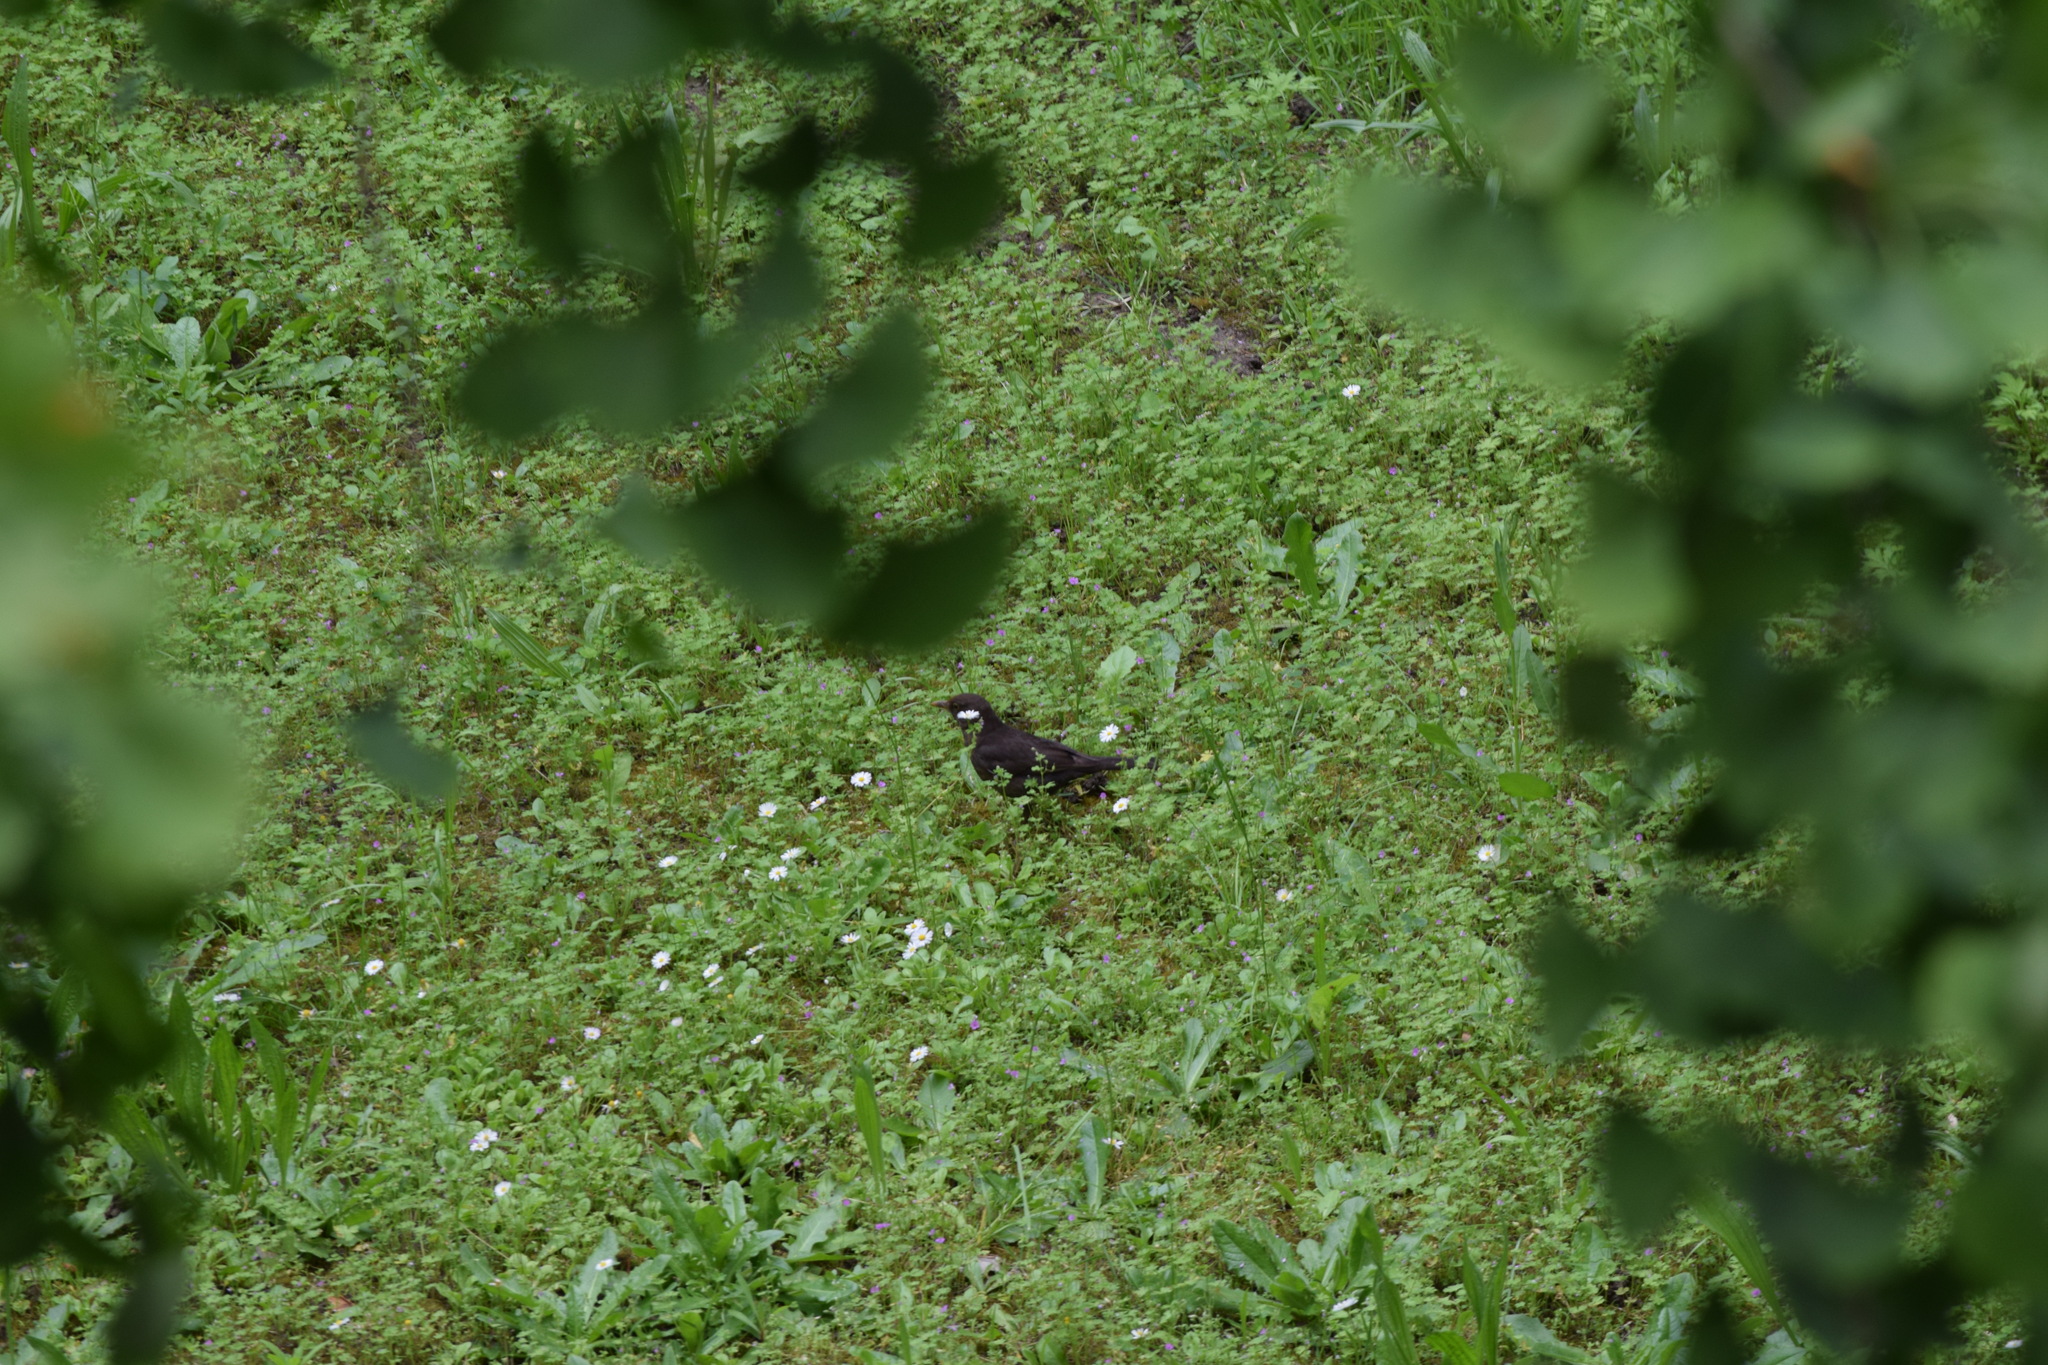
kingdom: Animalia
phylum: Chordata
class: Aves
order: Passeriformes
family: Turdidae
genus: Turdus
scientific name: Turdus merula
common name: Common blackbird
